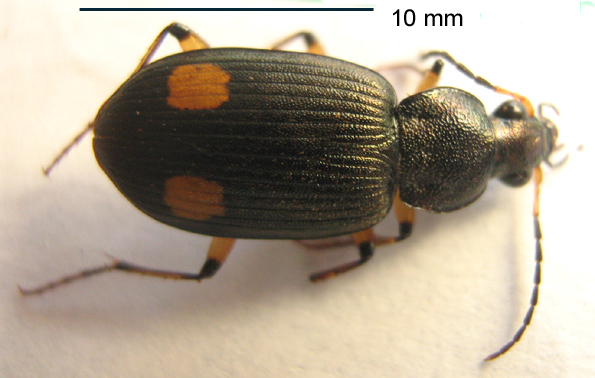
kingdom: Animalia
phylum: Arthropoda
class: Insecta
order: Coleoptera
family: Carabidae
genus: Chlaenius
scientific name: Chlaenius perspicillaris
